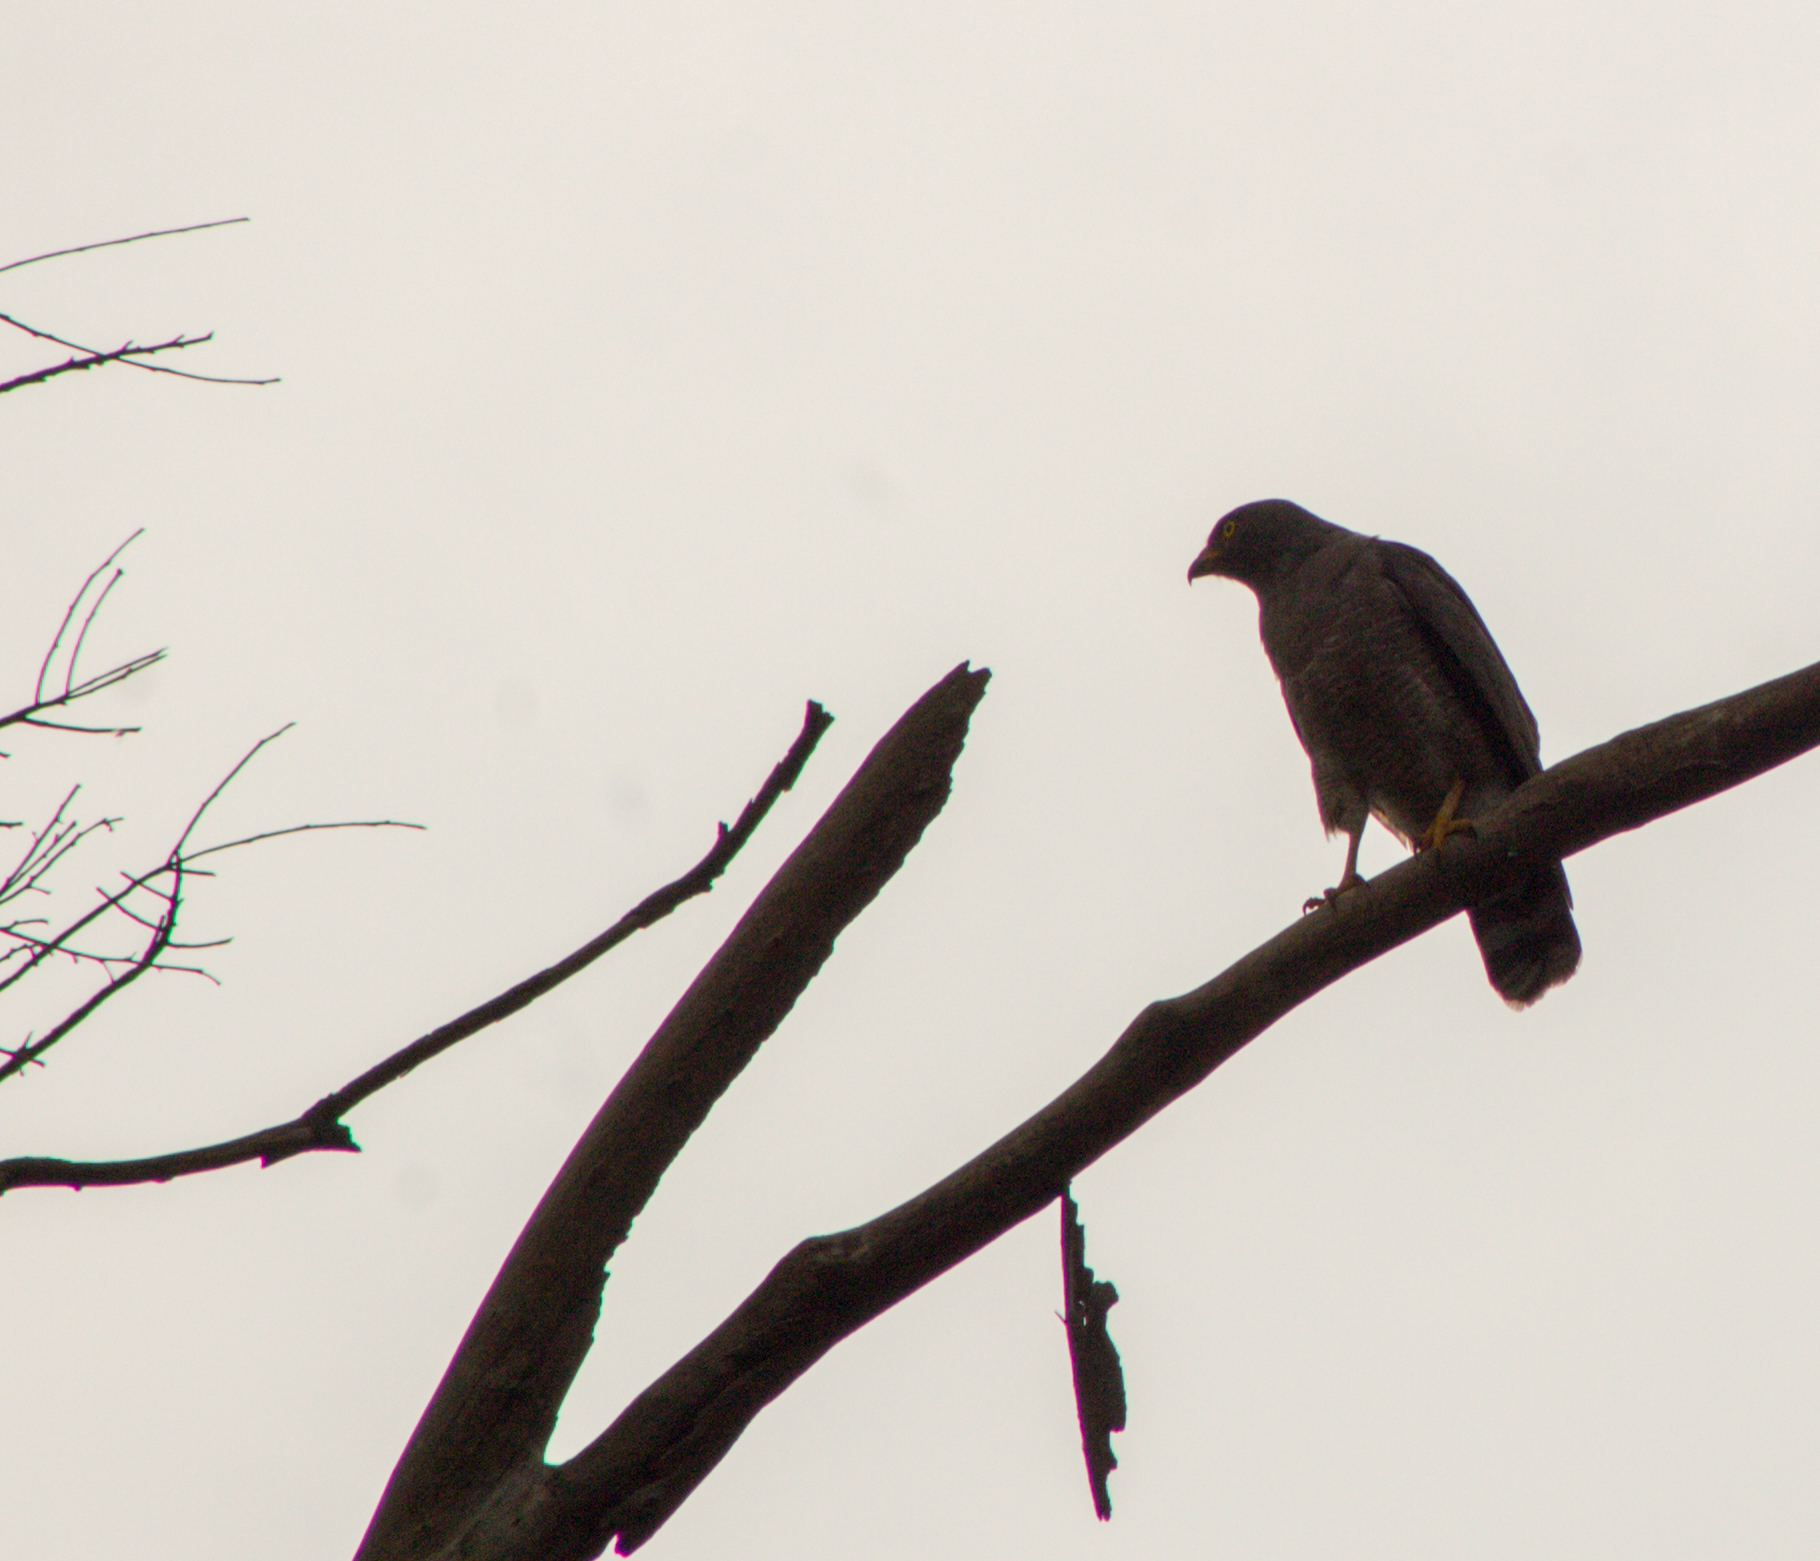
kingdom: Animalia
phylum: Chordata
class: Aves
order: Accipitriformes
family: Accipitridae
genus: Rupornis
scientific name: Rupornis magnirostris
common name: Roadside hawk
